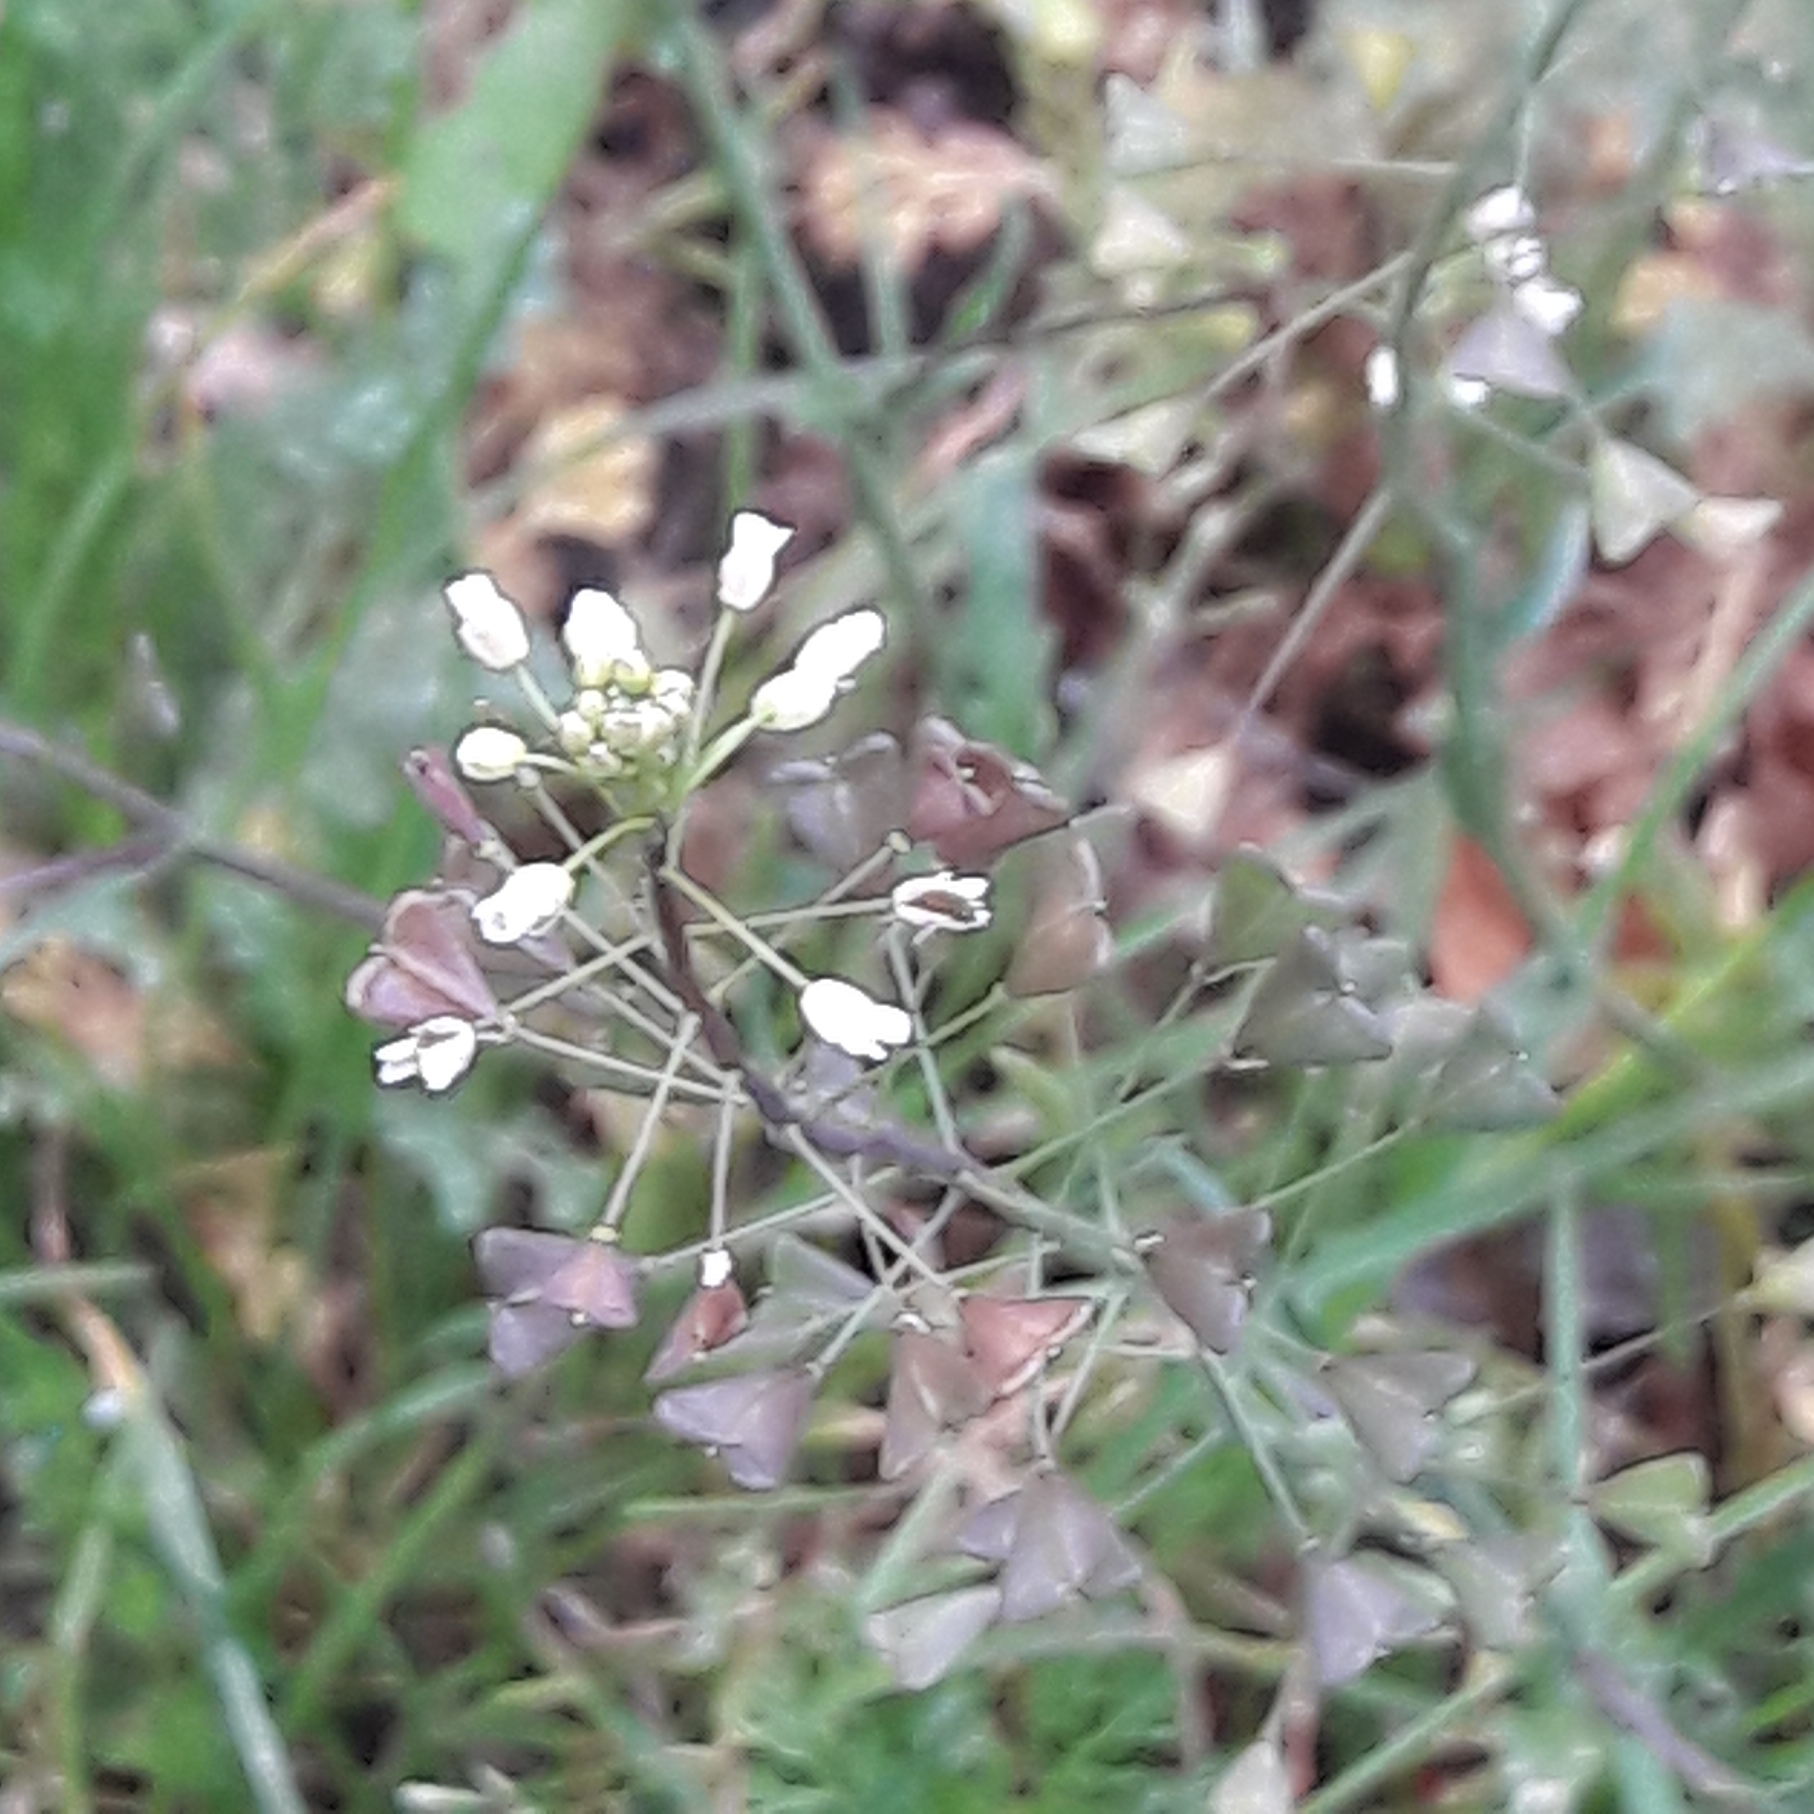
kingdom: Plantae
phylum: Tracheophyta
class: Magnoliopsida
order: Brassicales
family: Brassicaceae
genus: Capsella
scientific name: Capsella bursa-pastoris
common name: Shepherd's purse
